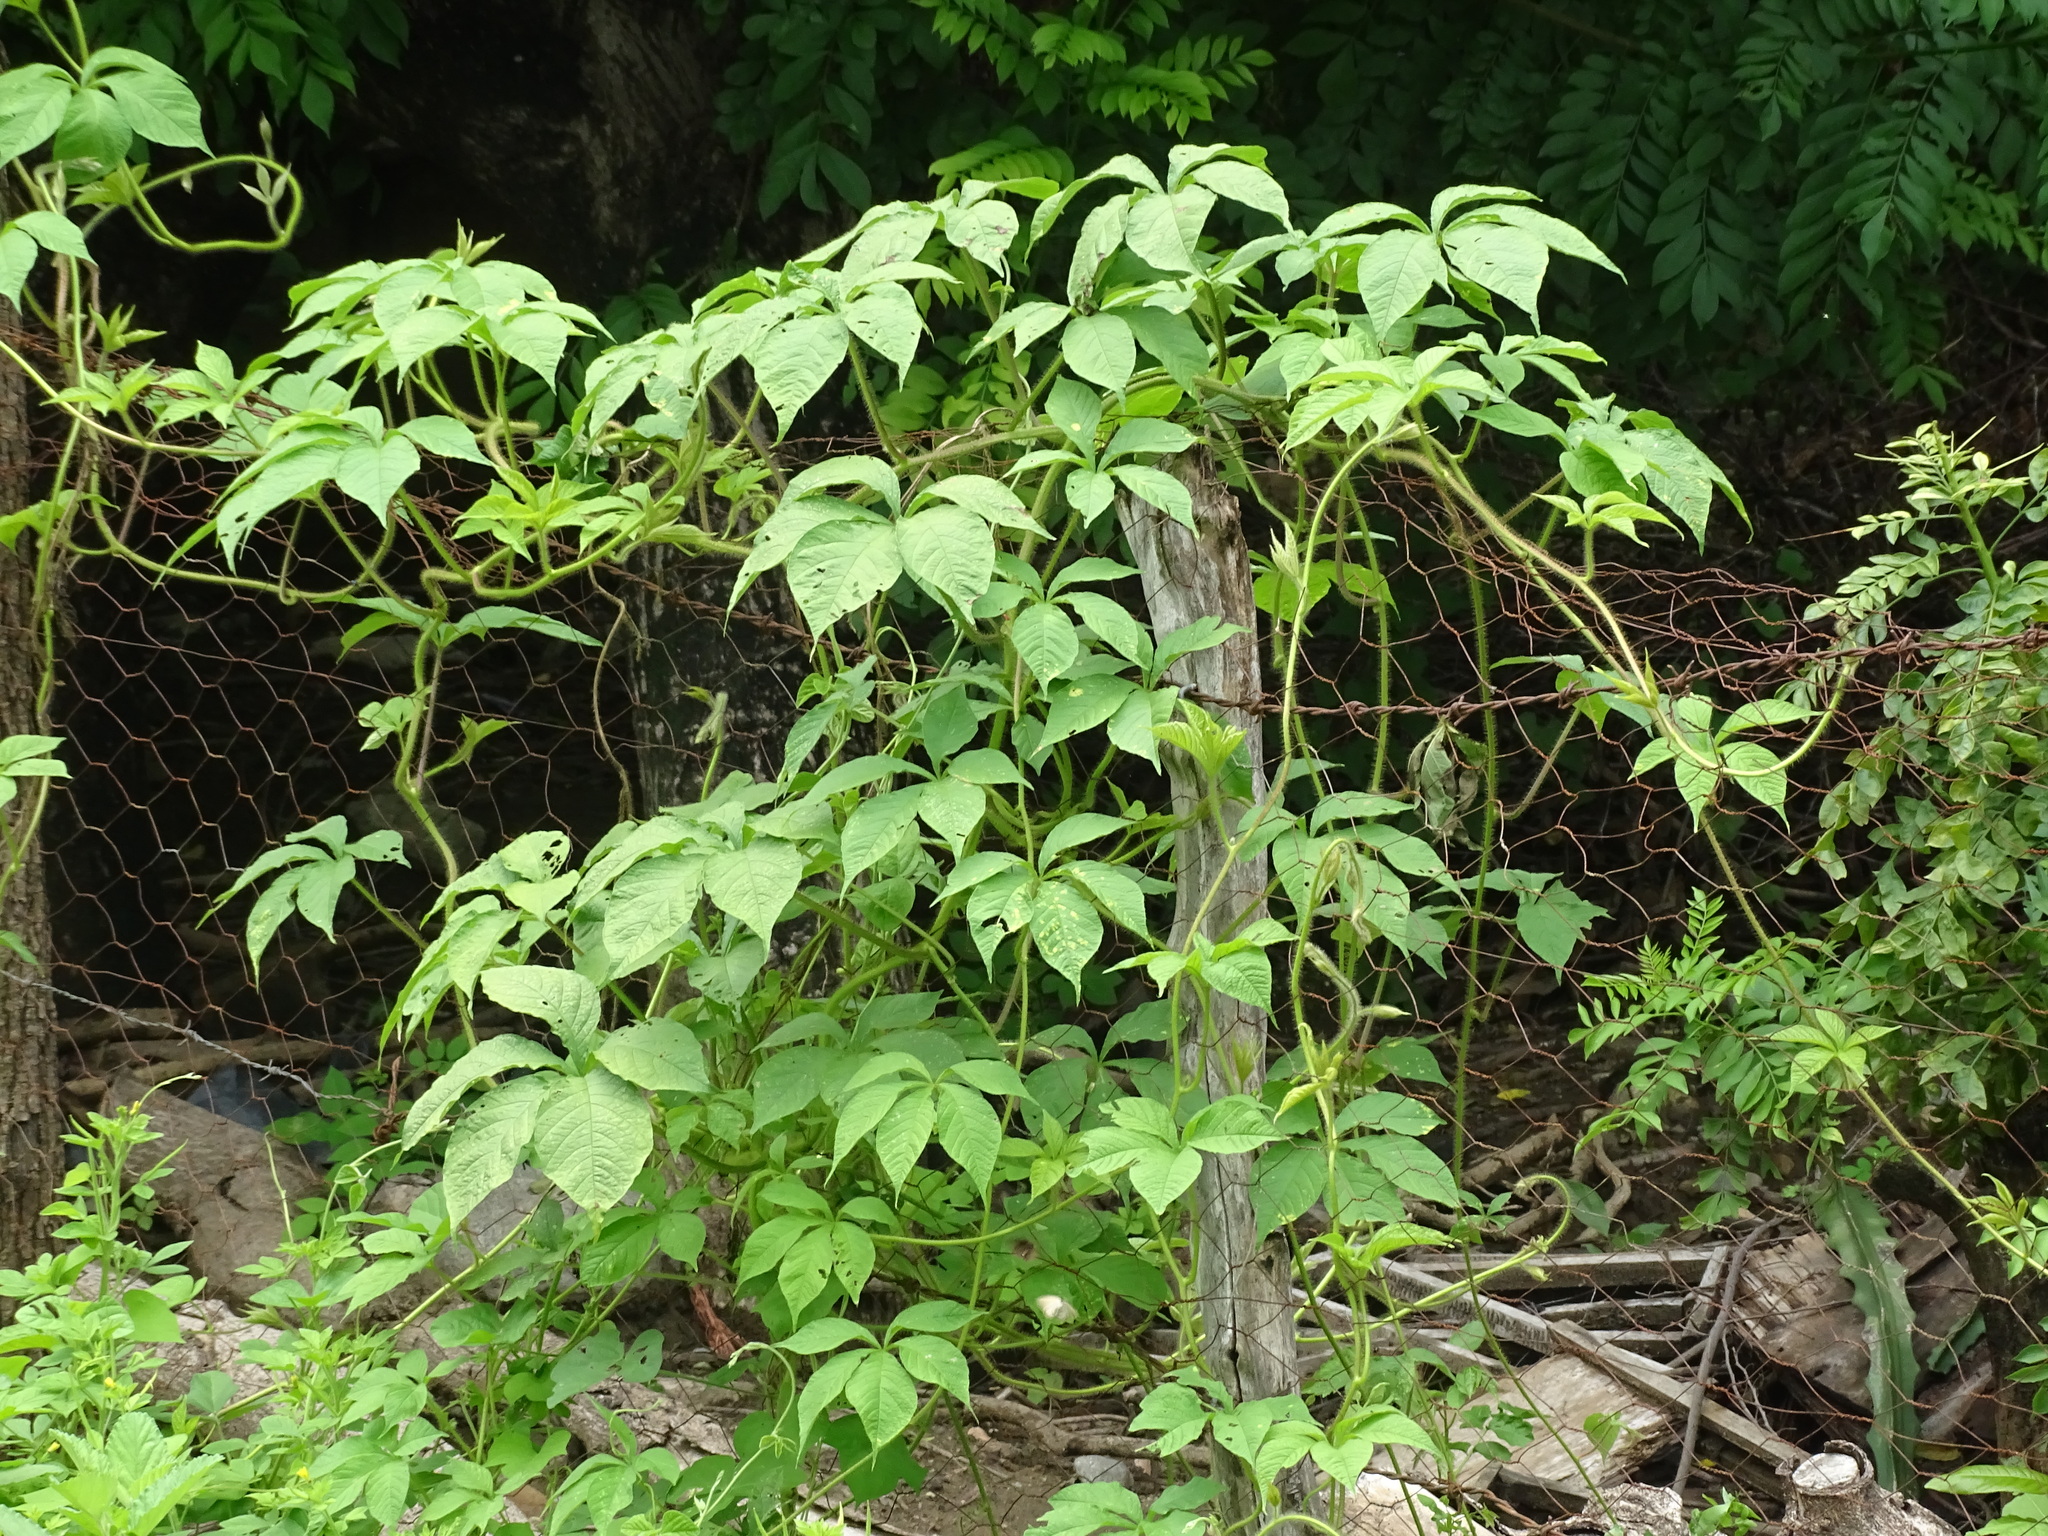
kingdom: Plantae
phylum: Tracheophyta
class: Magnoliopsida
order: Solanales
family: Convolvulaceae
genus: Distimake
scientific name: Distimake aegyptius
